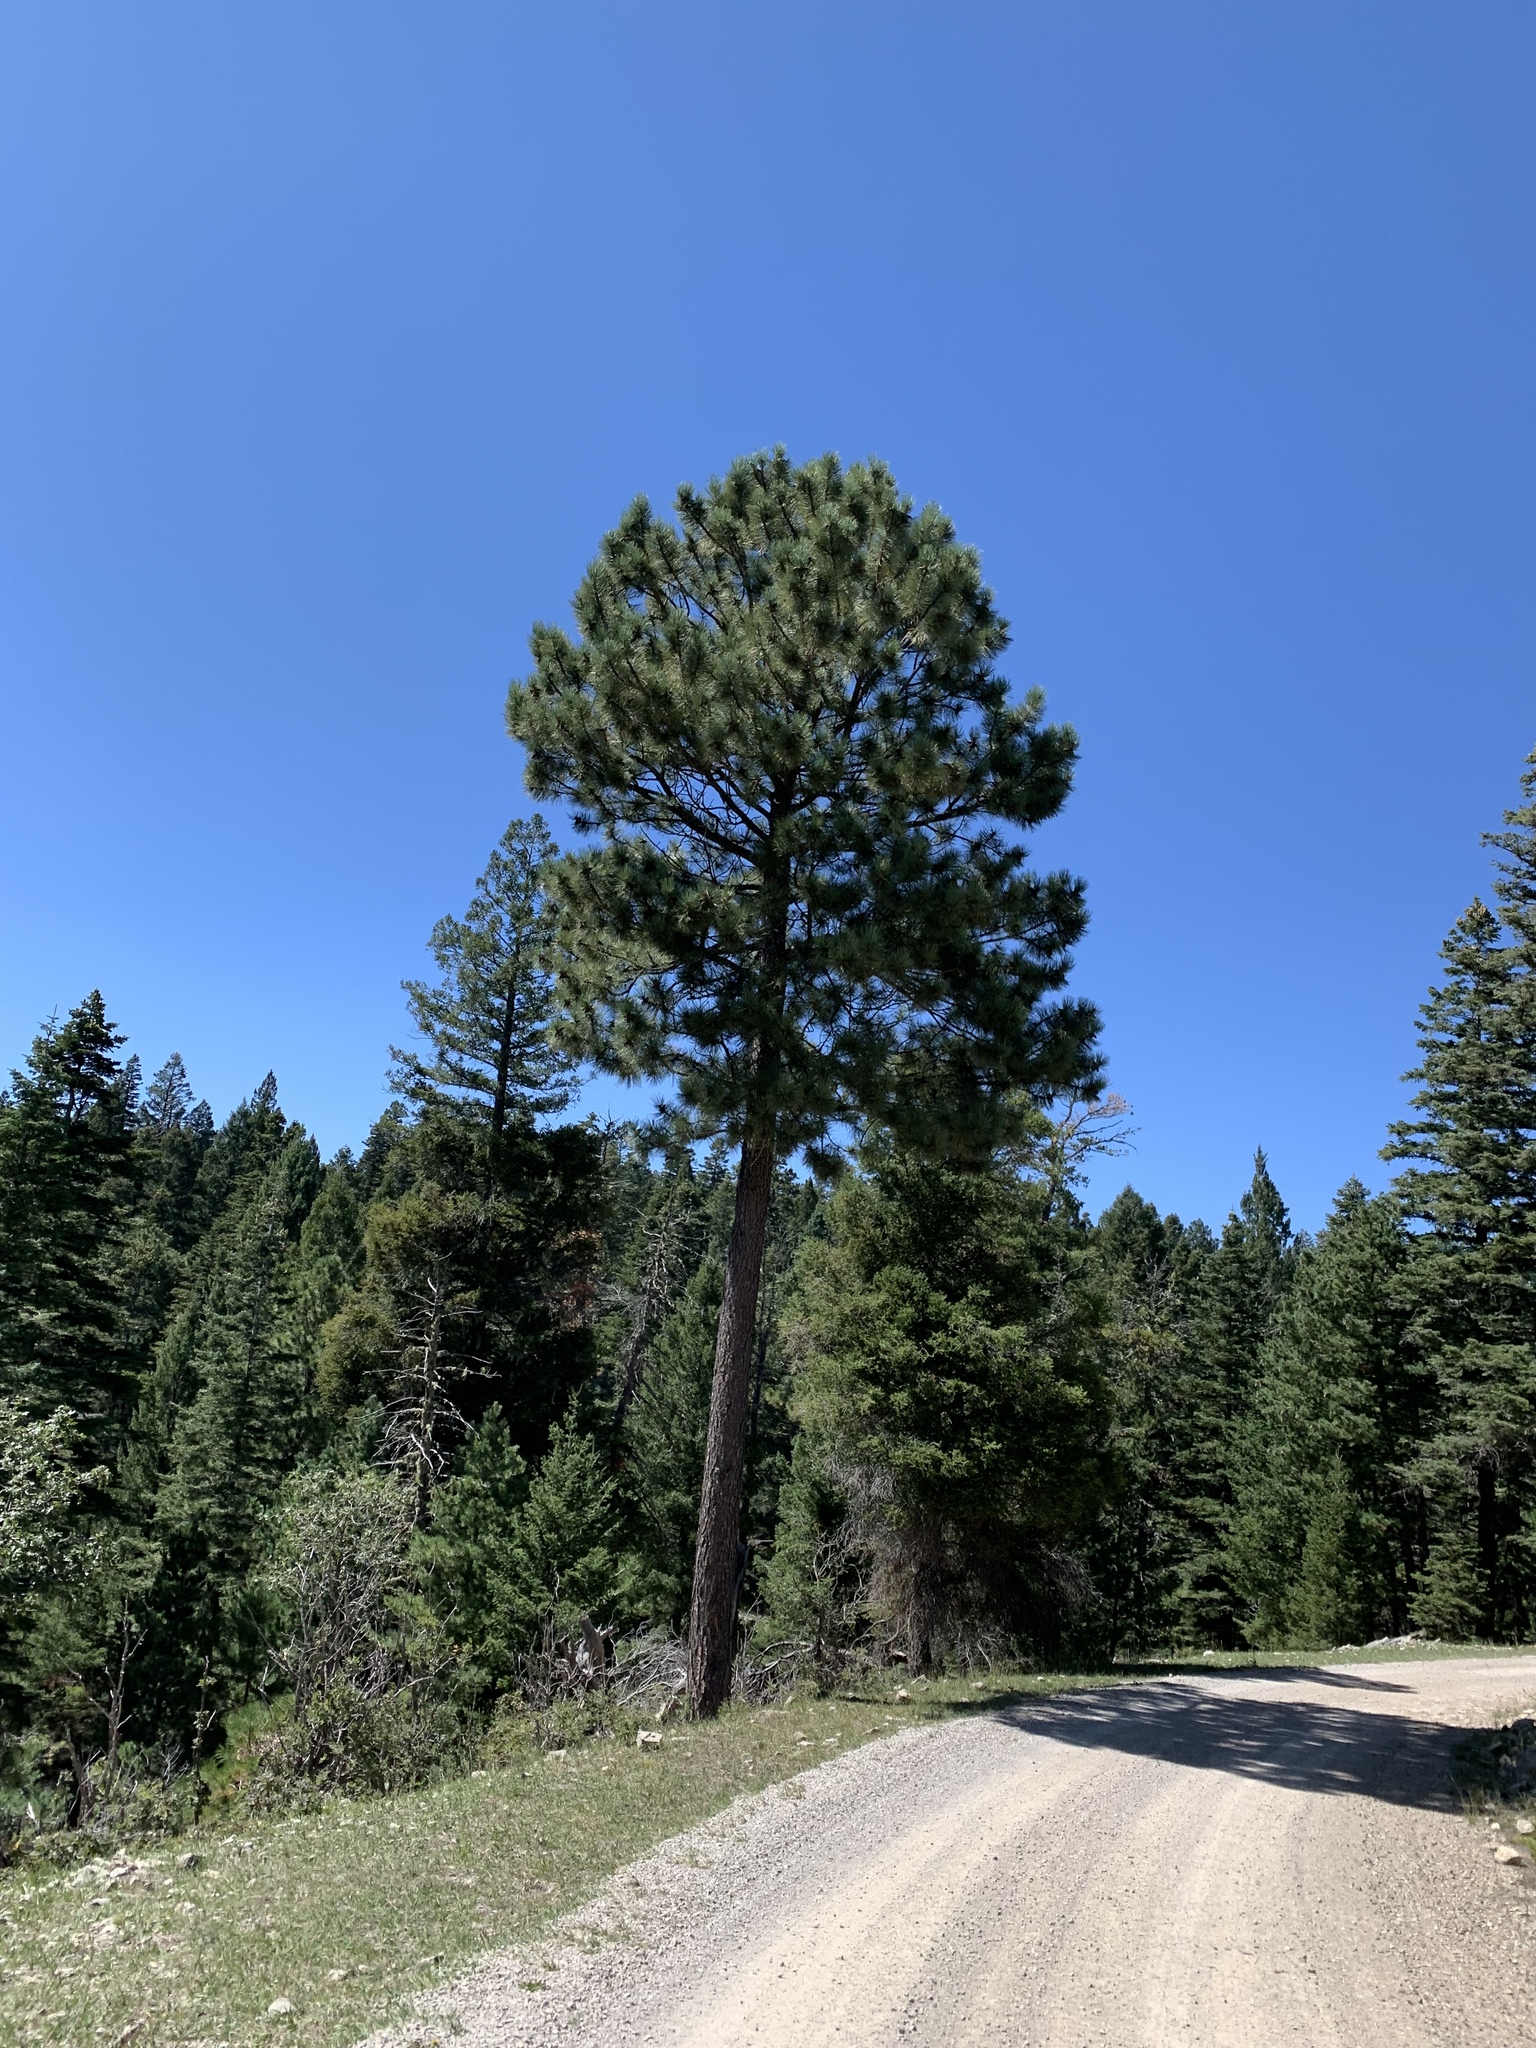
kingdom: Plantae
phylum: Tracheophyta
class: Pinopsida
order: Pinales
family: Pinaceae
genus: Pinus
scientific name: Pinus ponderosa
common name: Western yellow-pine
